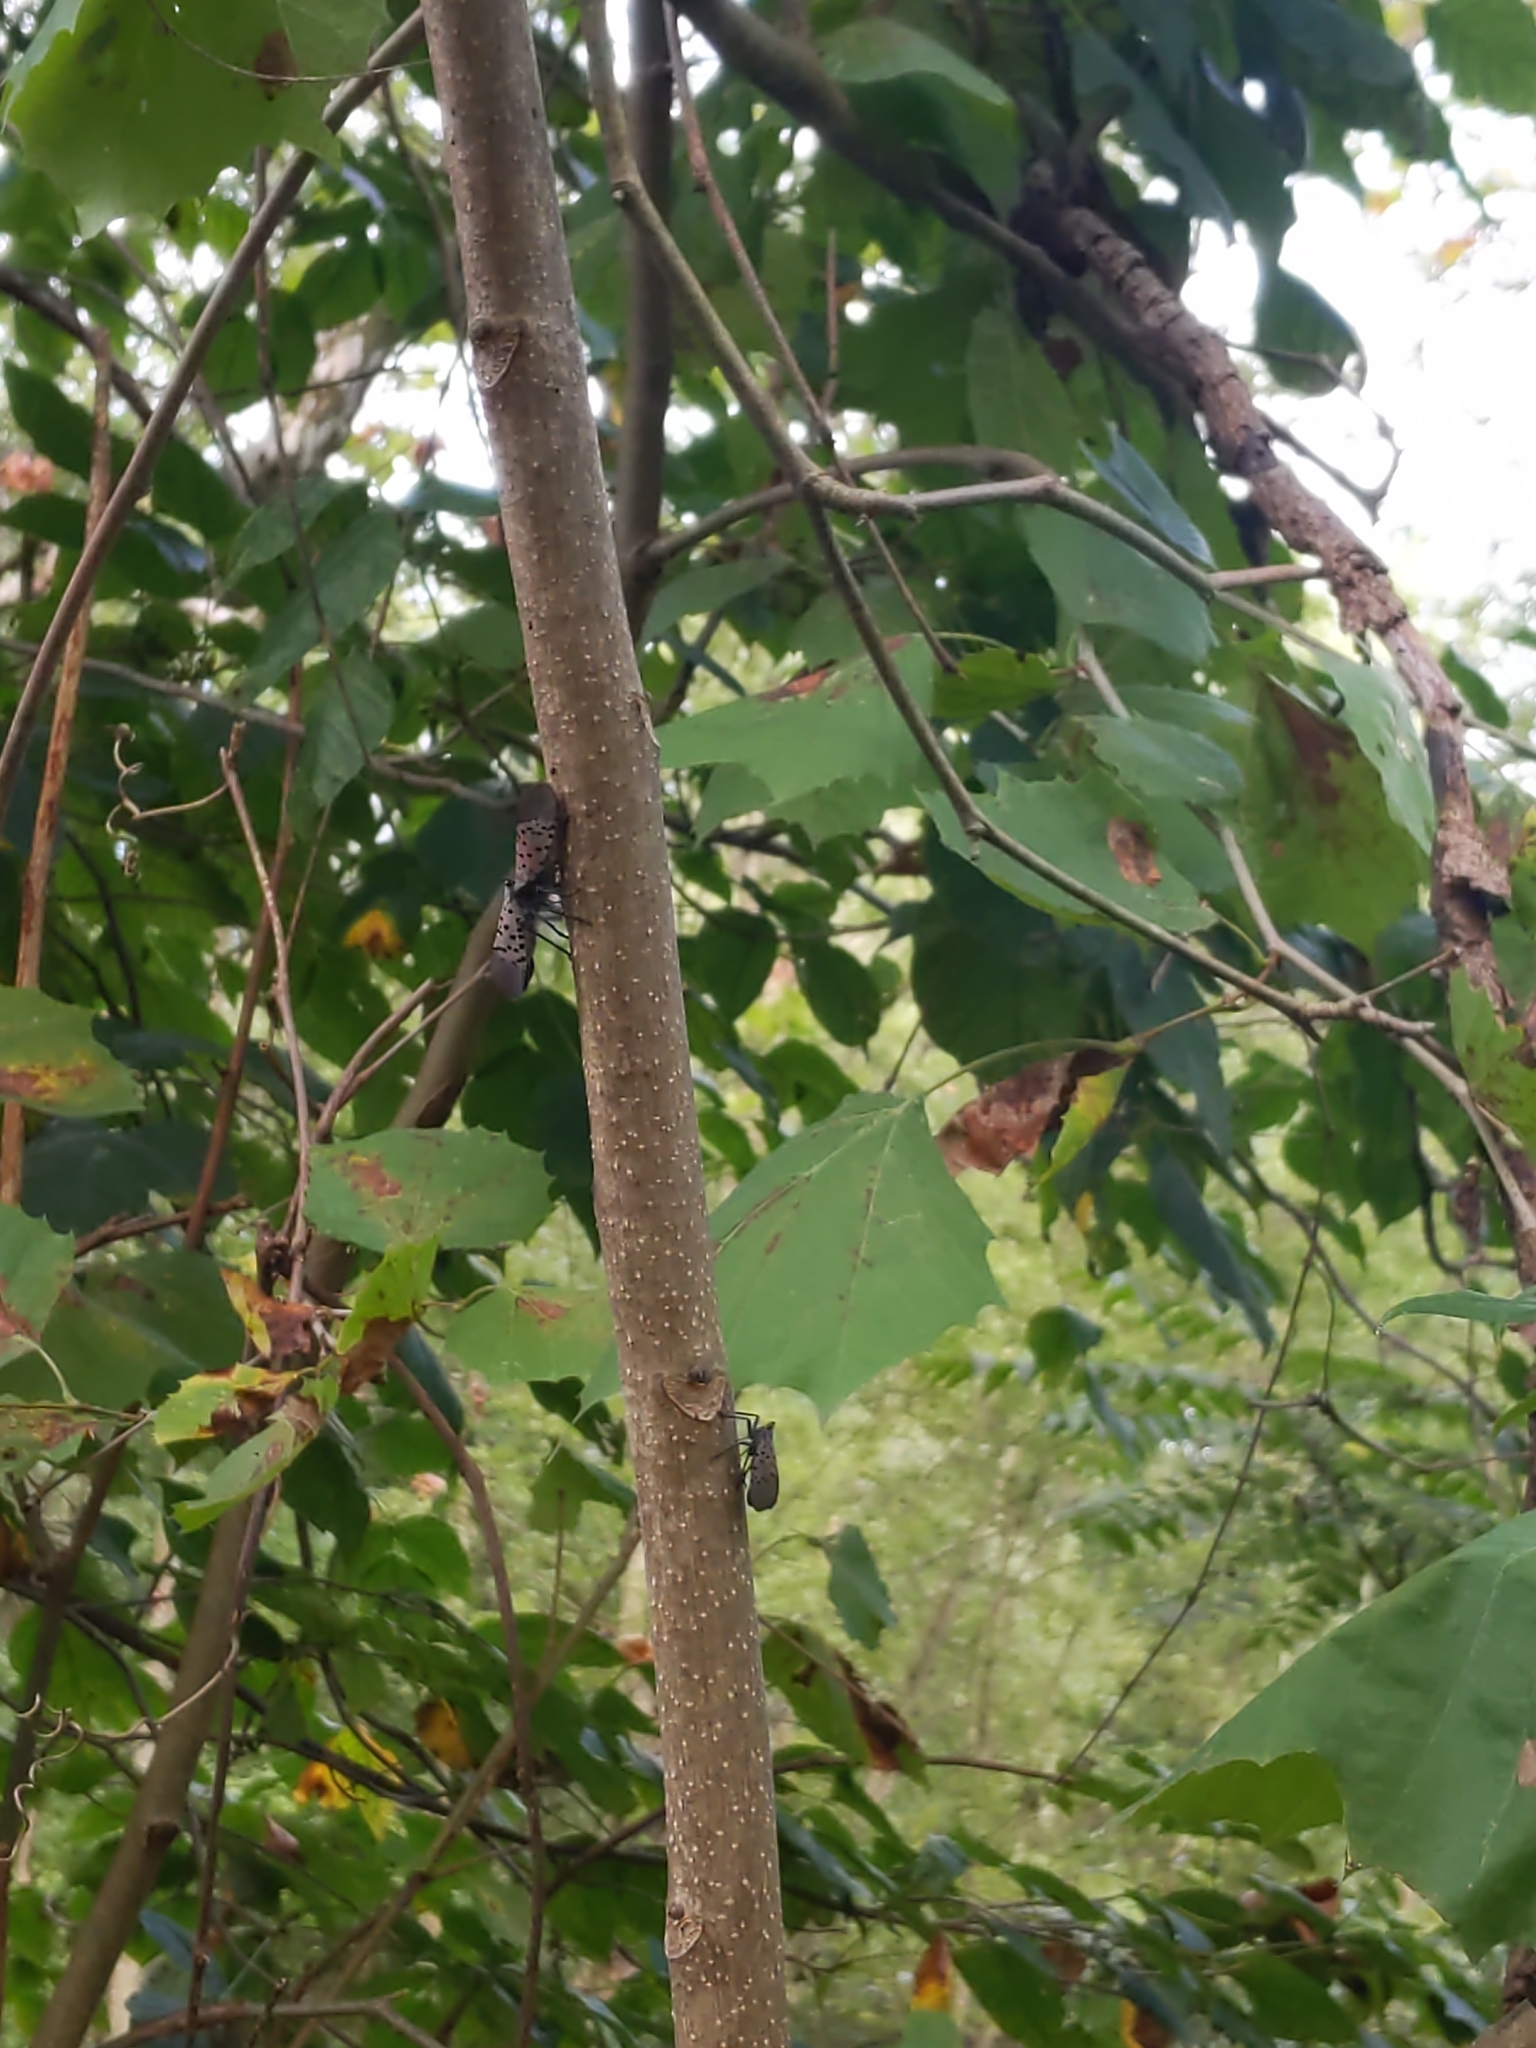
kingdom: Animalia
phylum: Arthropoda
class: Insecta
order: Hemiptera
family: Fulgoridae
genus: Lycorma
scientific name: Lycorma delicatula
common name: Spotted lanternfly
